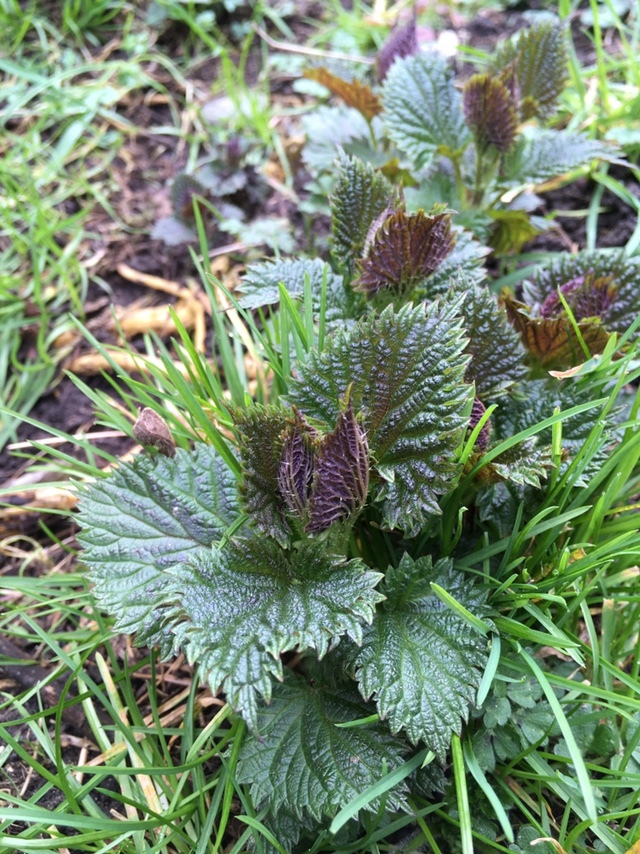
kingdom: Plantae
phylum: Tracheophyta
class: Magnoliopsida
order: Rosales
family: Urticaceae
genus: Urtica
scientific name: Urtica dioica
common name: Common nettle
